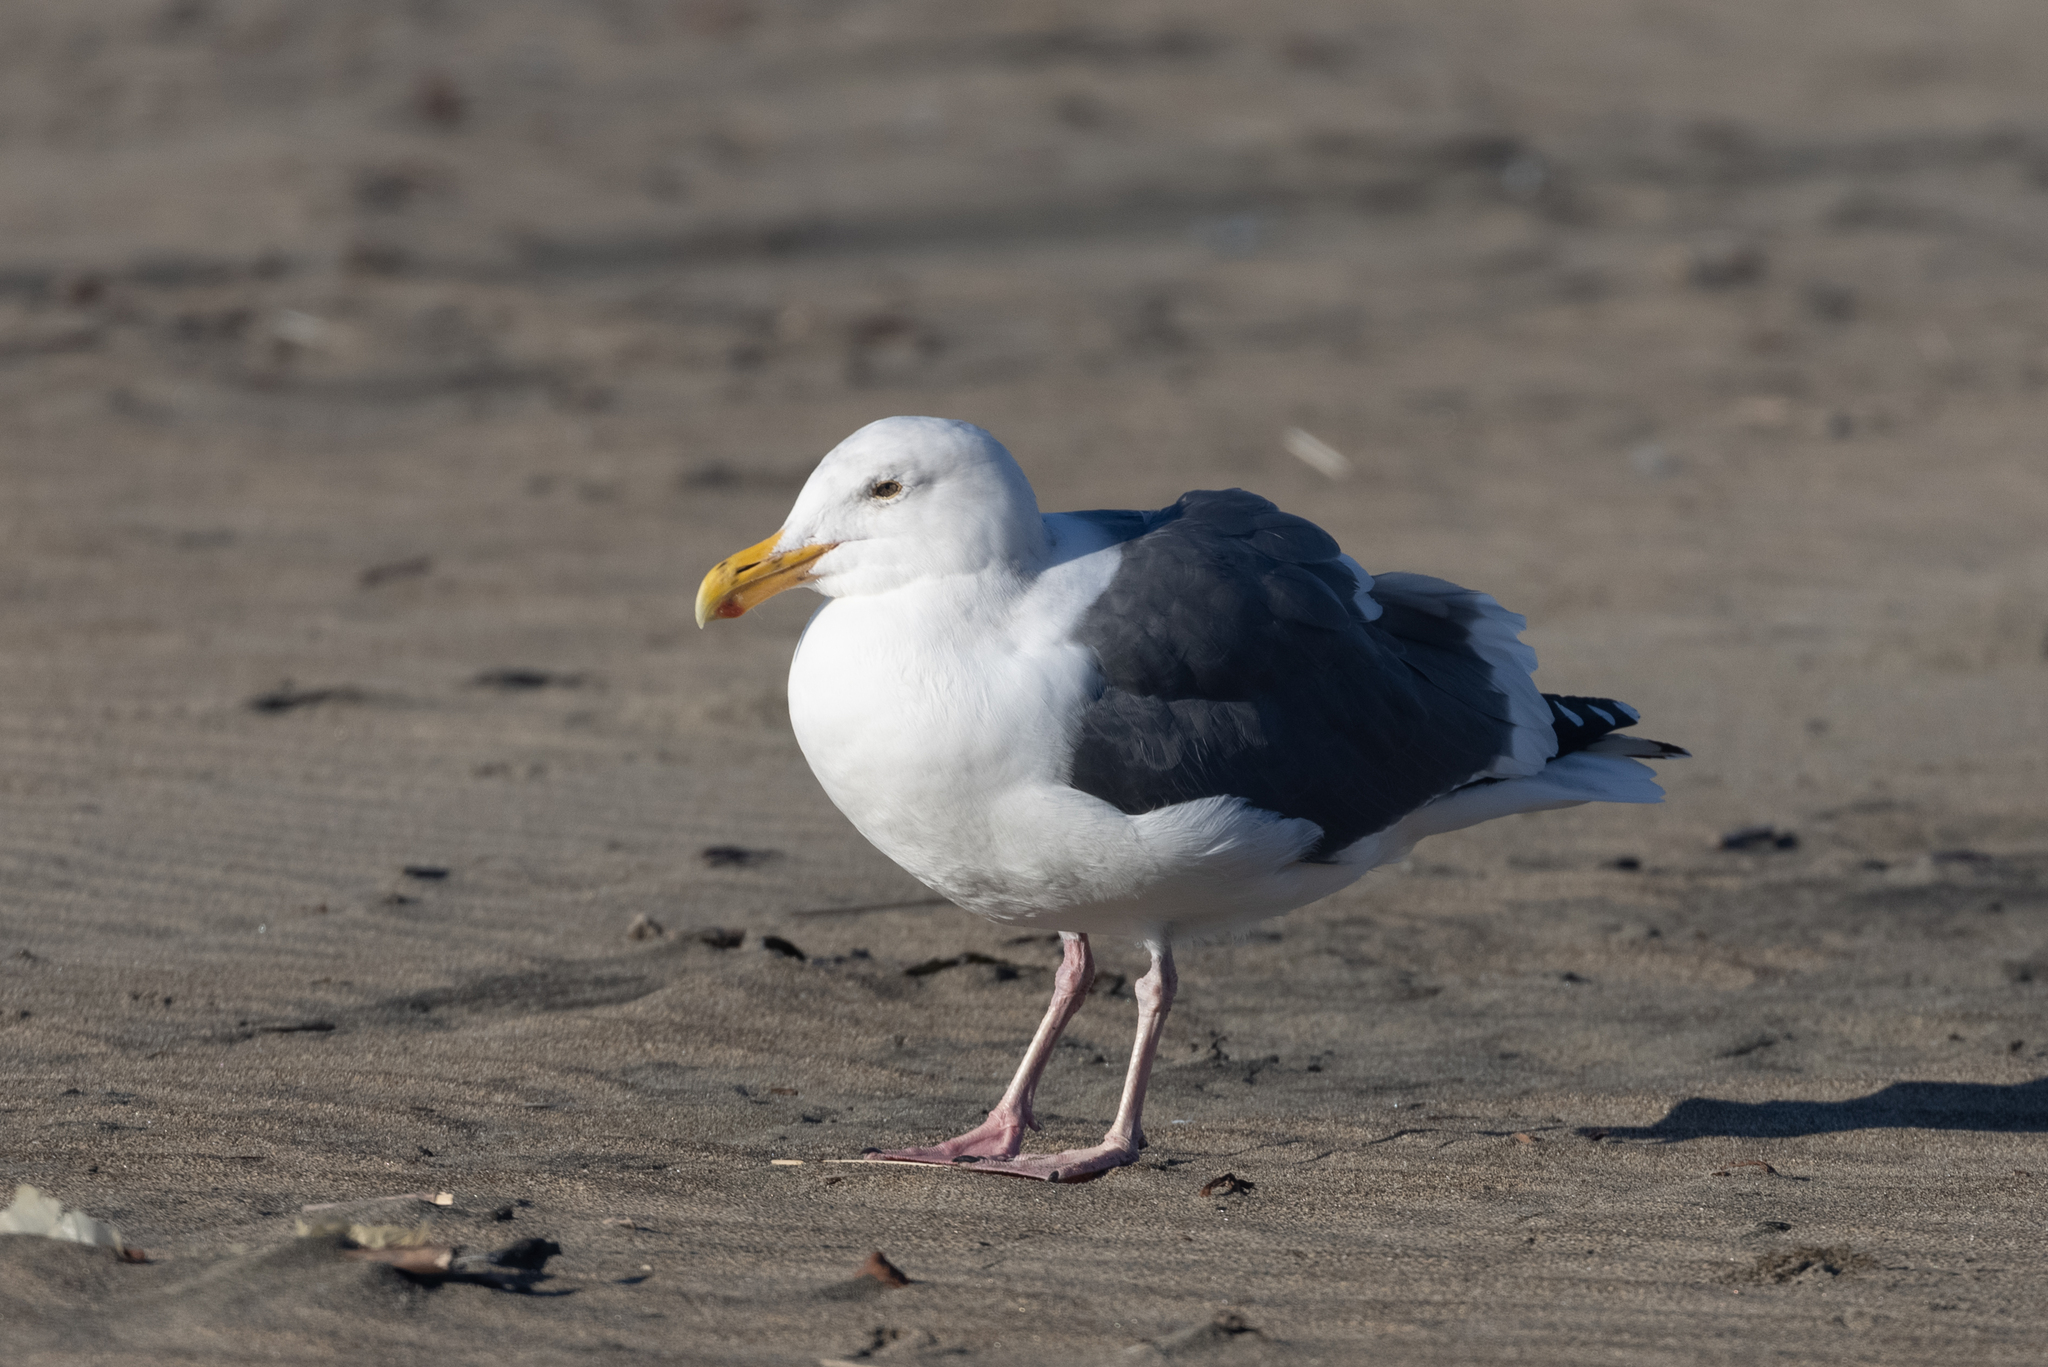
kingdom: Animalia
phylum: Chordata
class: Aves
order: Charadriiformes
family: Laridae
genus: Larus
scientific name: Larus occidentalis
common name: Western gull
